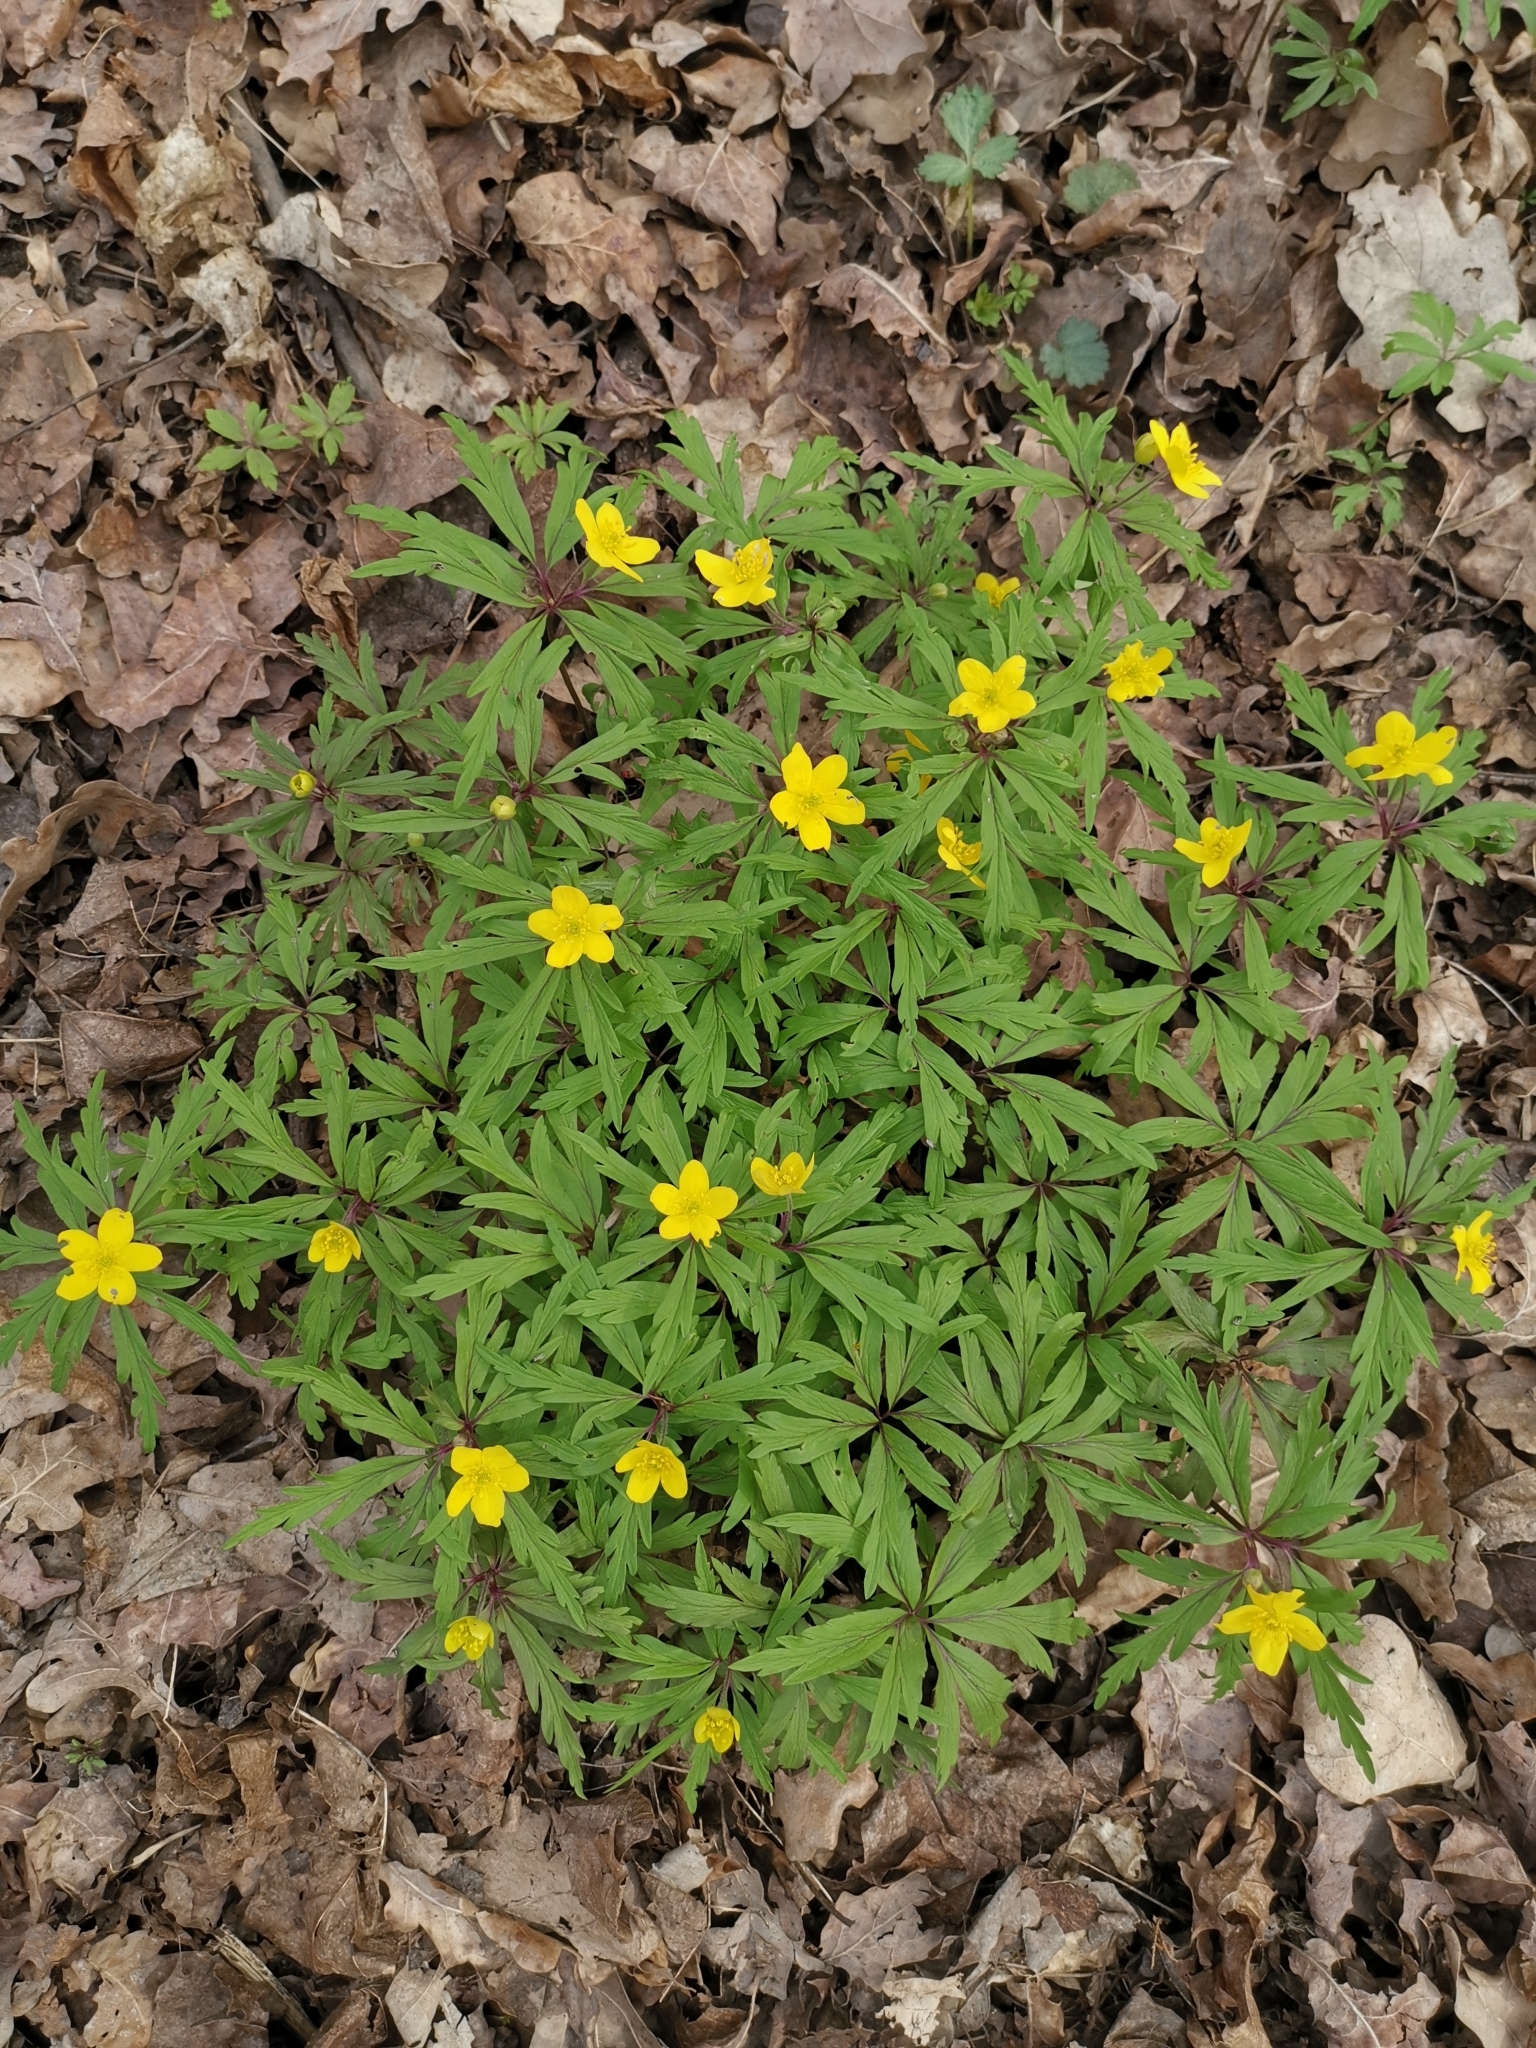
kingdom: Plantae
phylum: Tracheophyta
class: Magnoliopsida
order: Ranunculales
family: Ranunculaceae
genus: Anemone
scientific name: Anemone ranunculoides
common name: Yellow anemone
